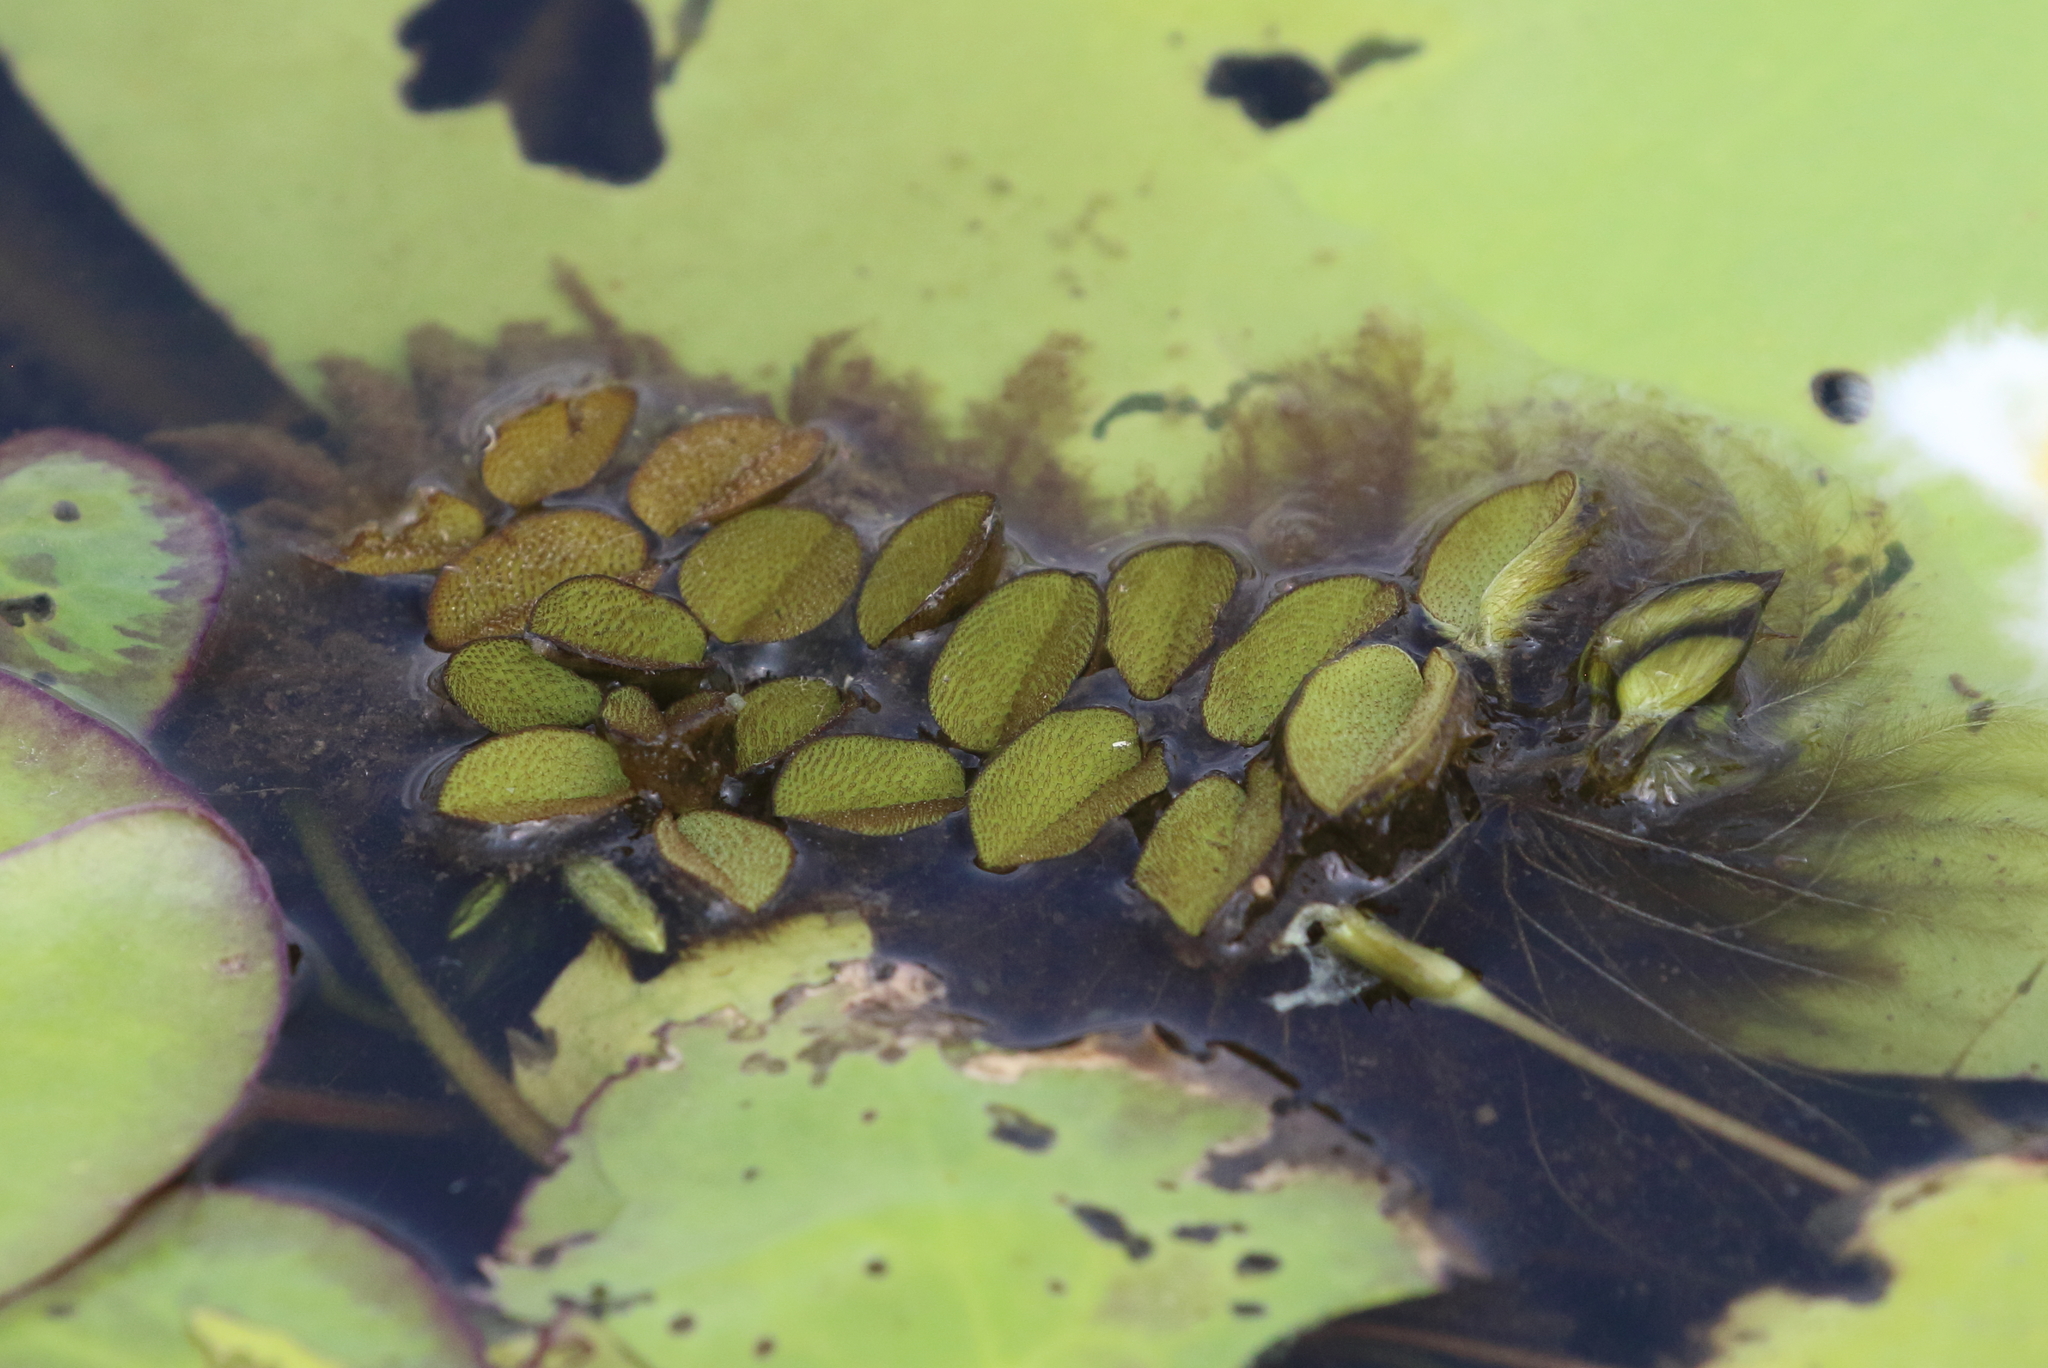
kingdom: Plantae
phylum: Tracheophyta
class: Polypodiopsida
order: Salviniales
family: Salviniaceae
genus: Salvinia
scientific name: Salvinia molesta
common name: Kariba weed
